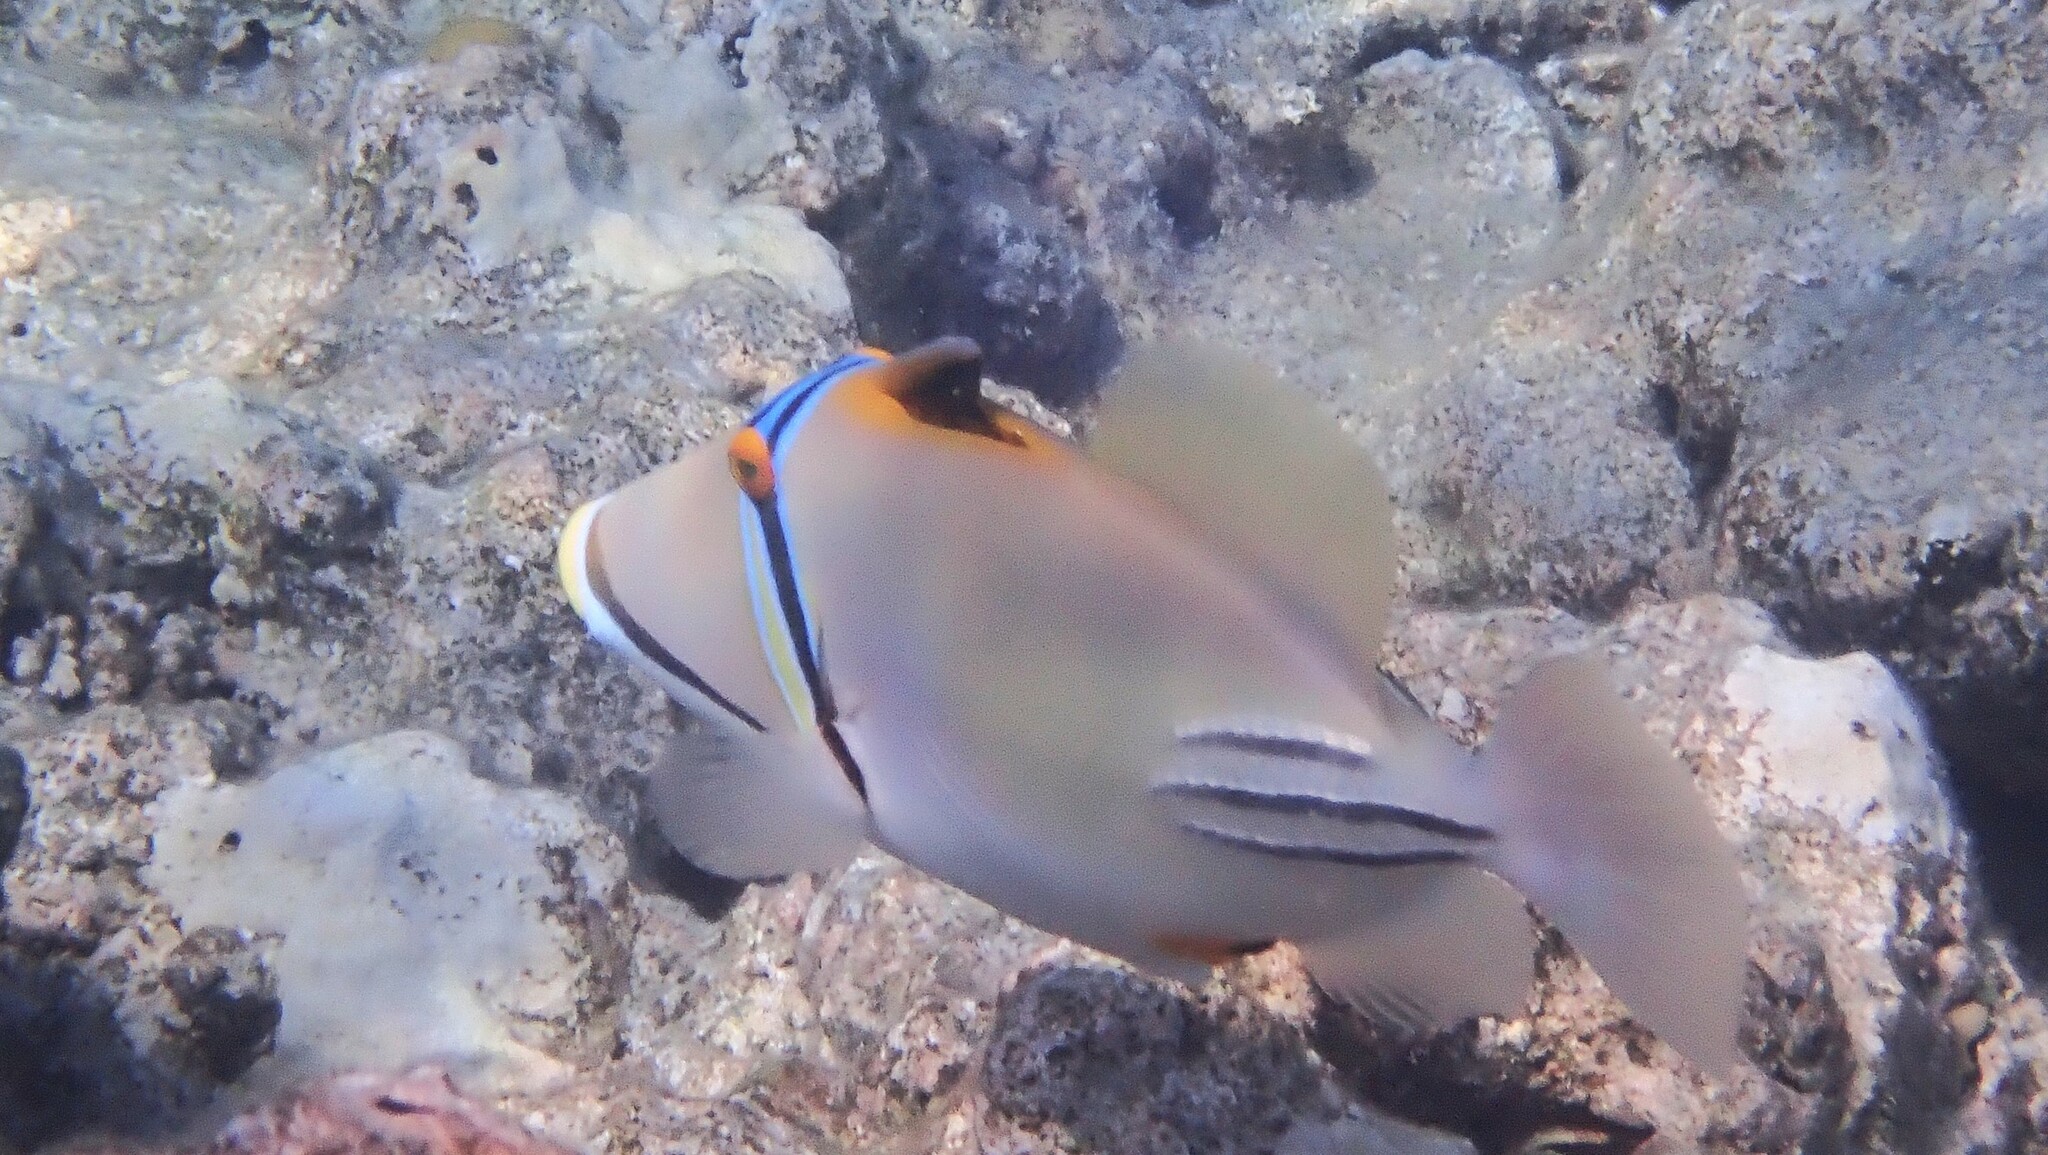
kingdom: Animalia
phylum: Chordata
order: Tetraodontiformes
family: Balistidae
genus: Rhinecanthus
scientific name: Rhinecanthus assasi
